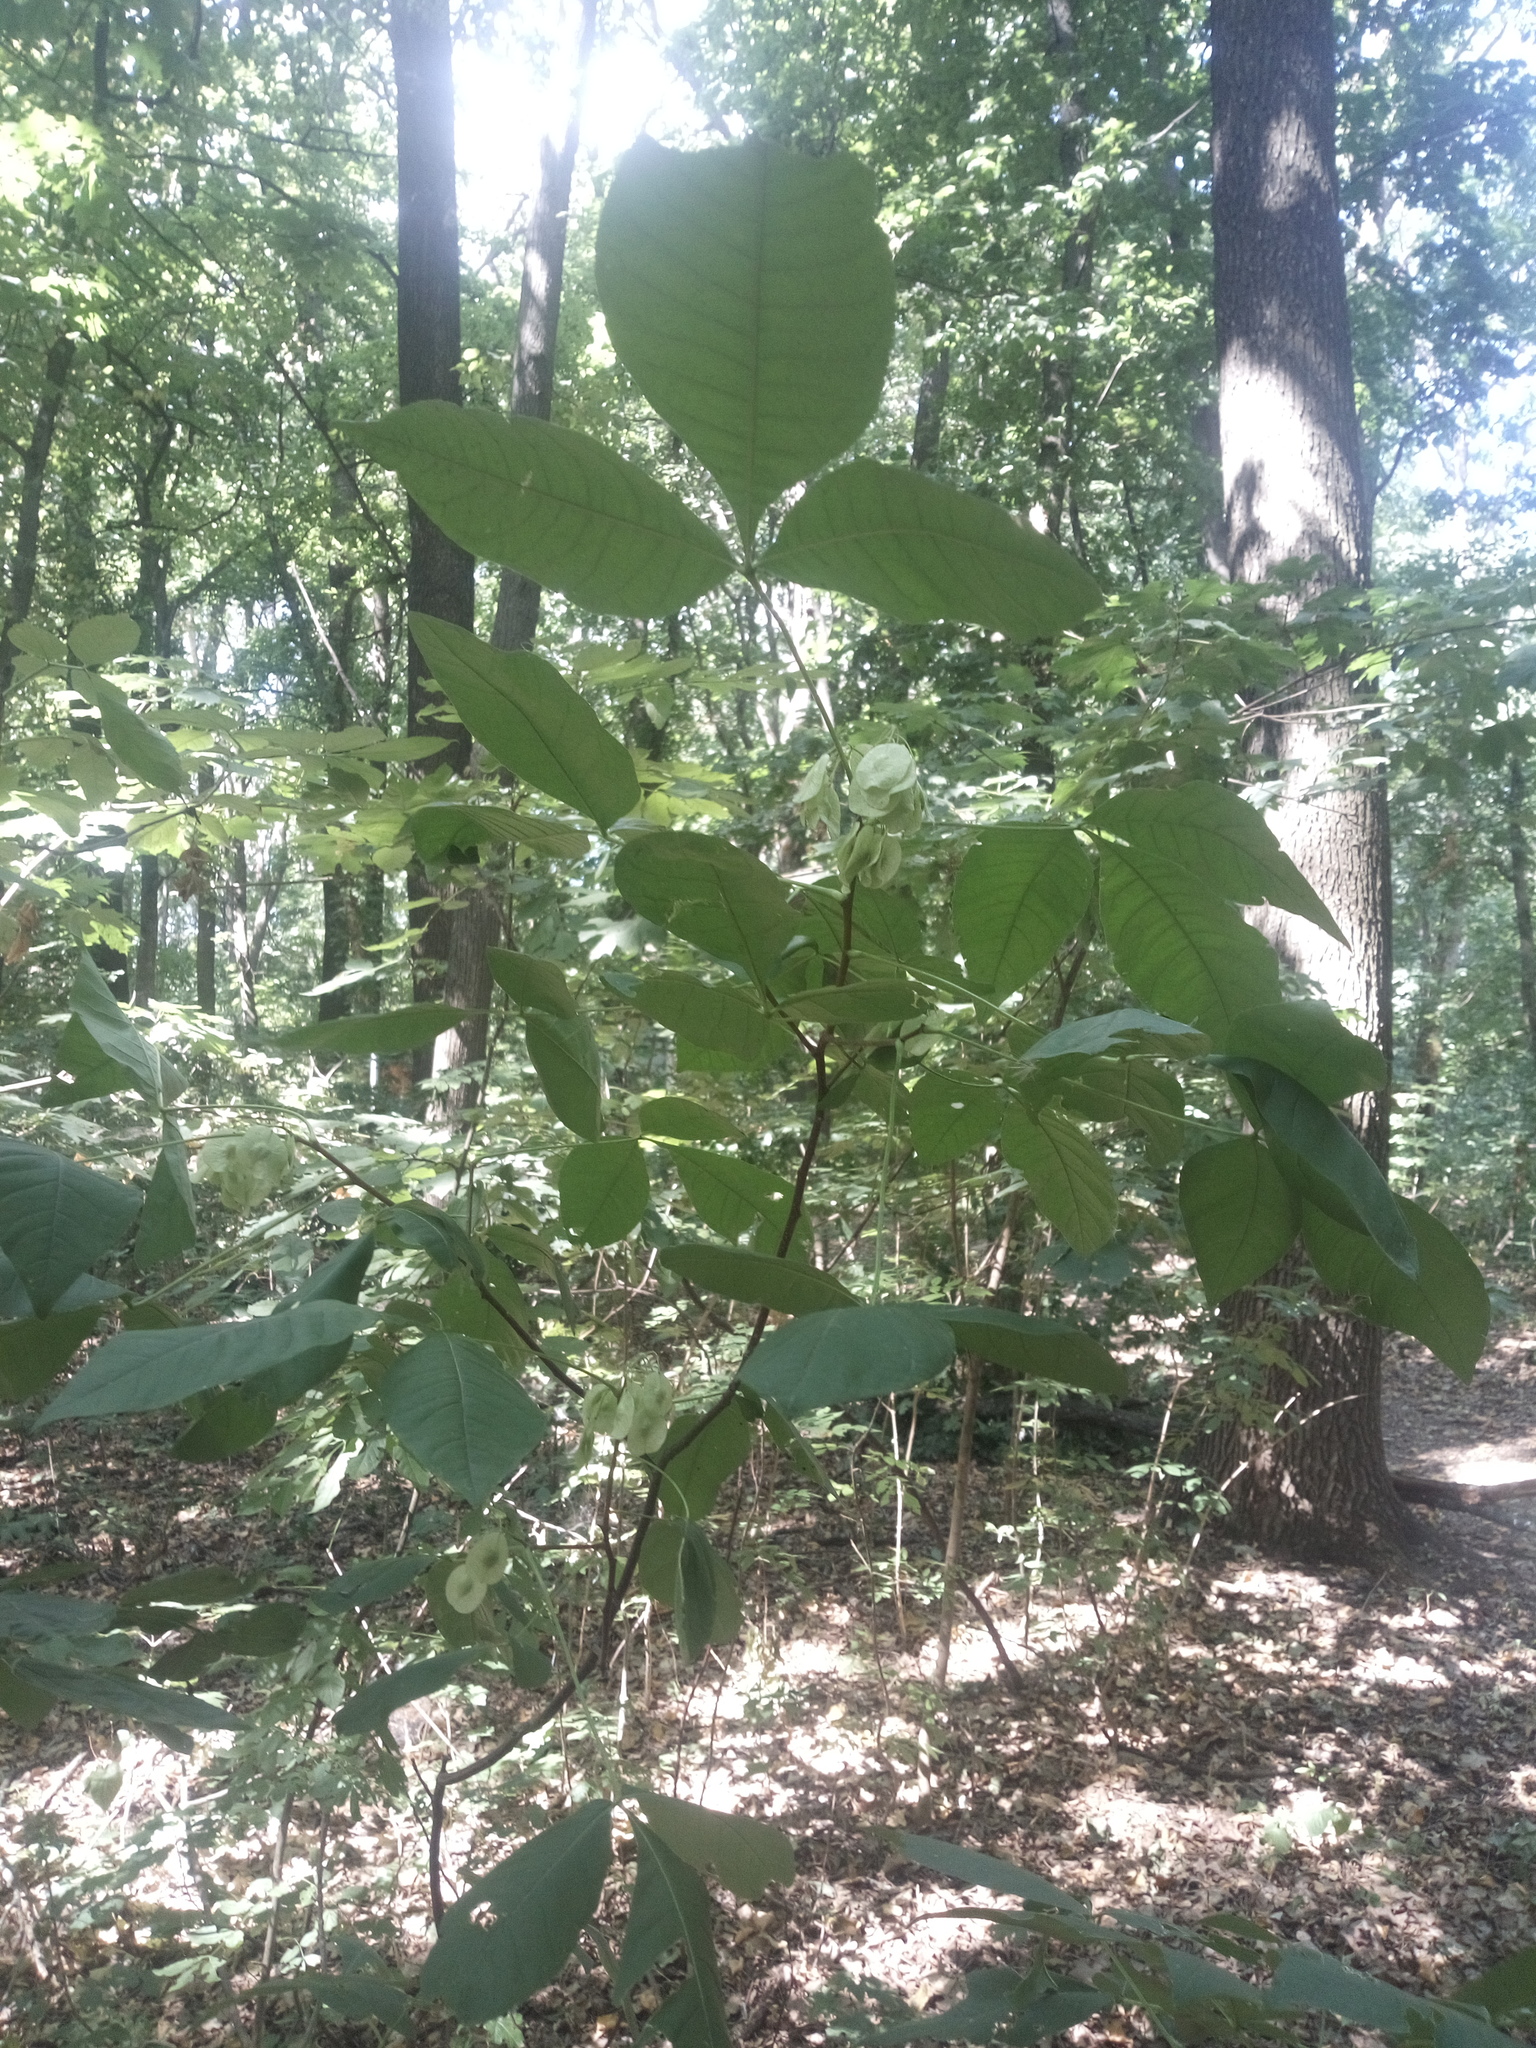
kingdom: Plantae
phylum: Tracheophyta
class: Magnoliopsida
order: Sapindales
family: Rutaceae
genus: Ptelea
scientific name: Ptelea trifoliata
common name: Common hop-tree
